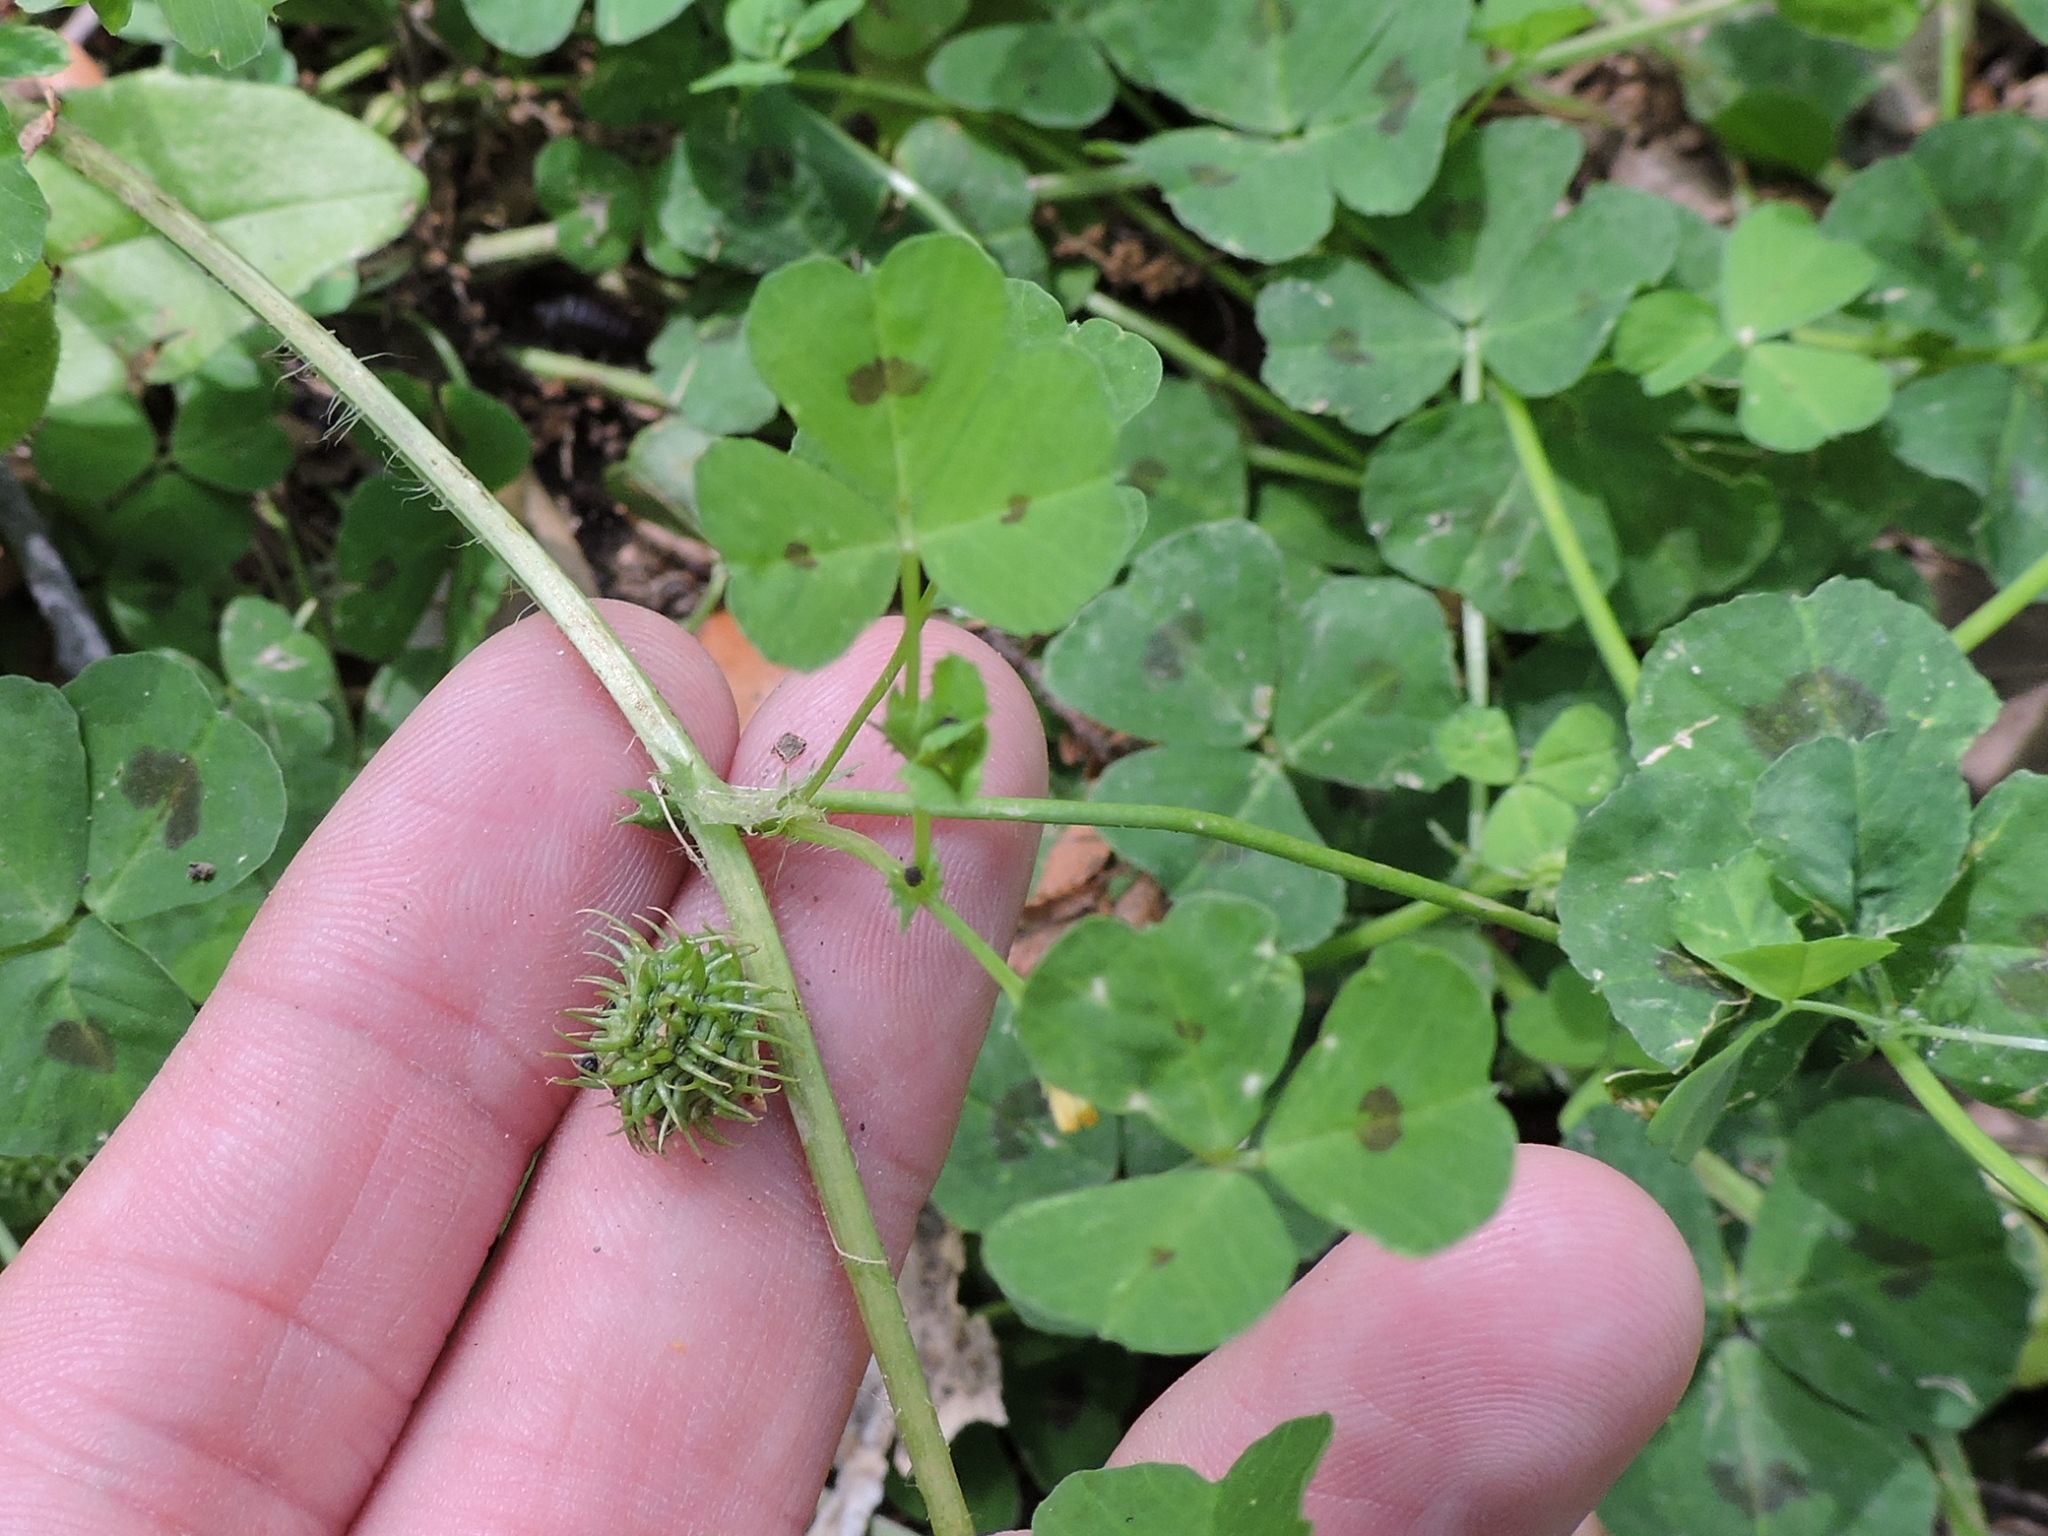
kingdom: Plantae
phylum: Tracheophyta
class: Magnoliopsida
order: Fabales
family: Fabaceae
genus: Medicago
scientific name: Medicago arabica
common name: Spotted medick
